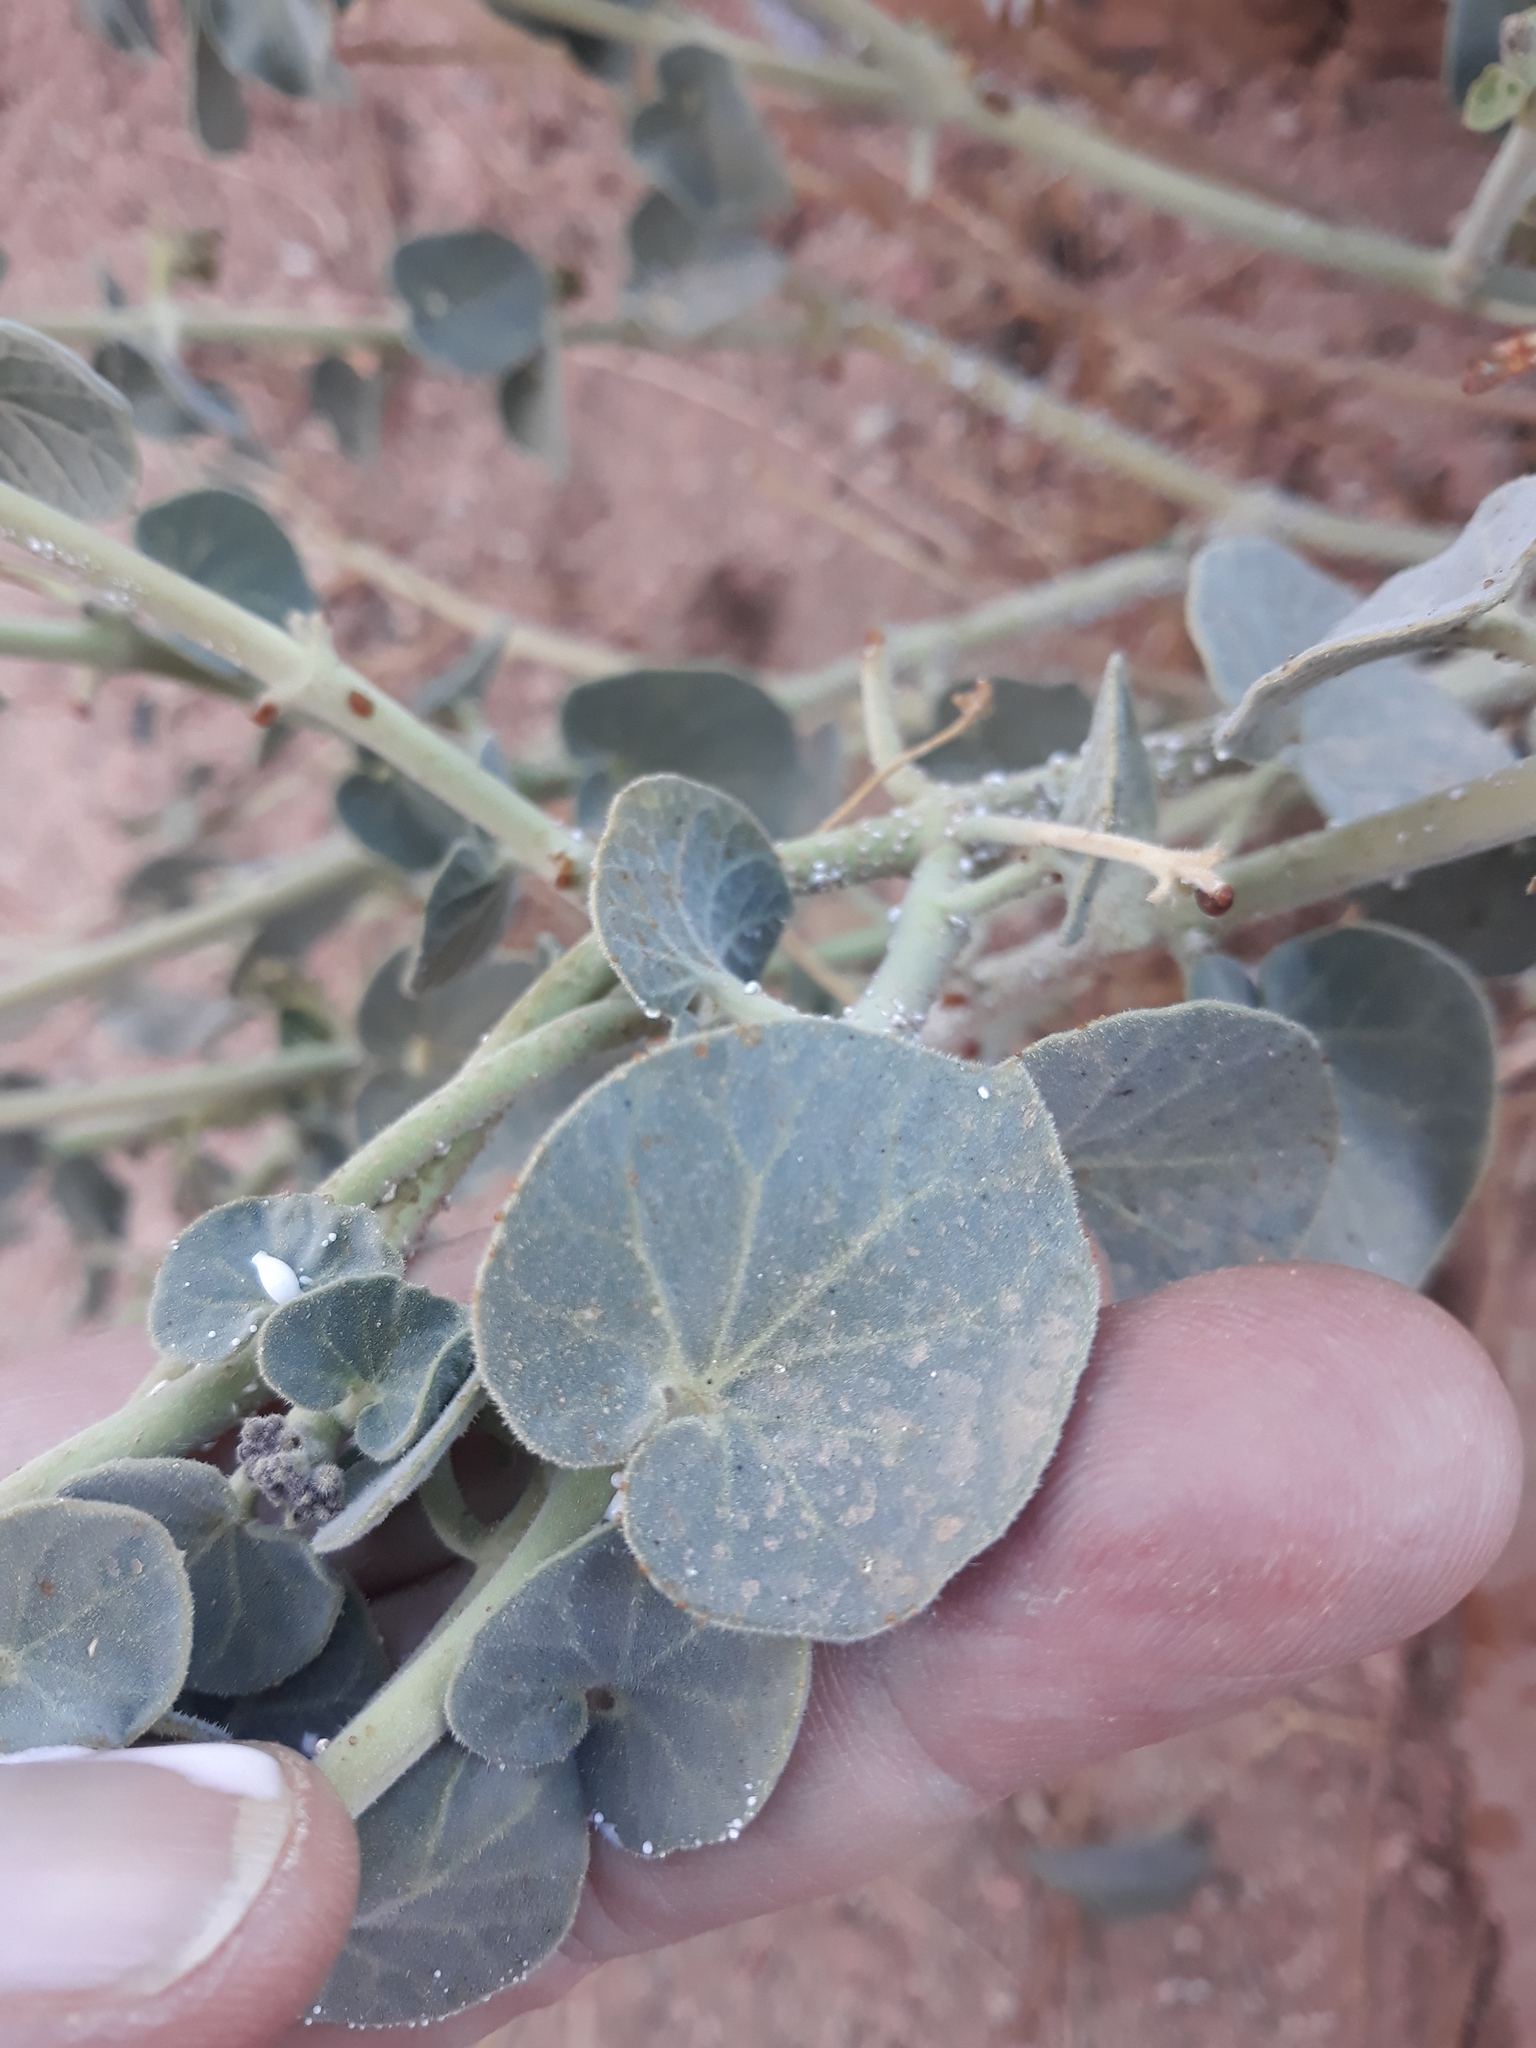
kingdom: Plantae
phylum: Tracheophyta
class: Magnoliopsida
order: Gentianales
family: Apocynaceae
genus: Pergularia
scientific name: Pergularia tomentosa
